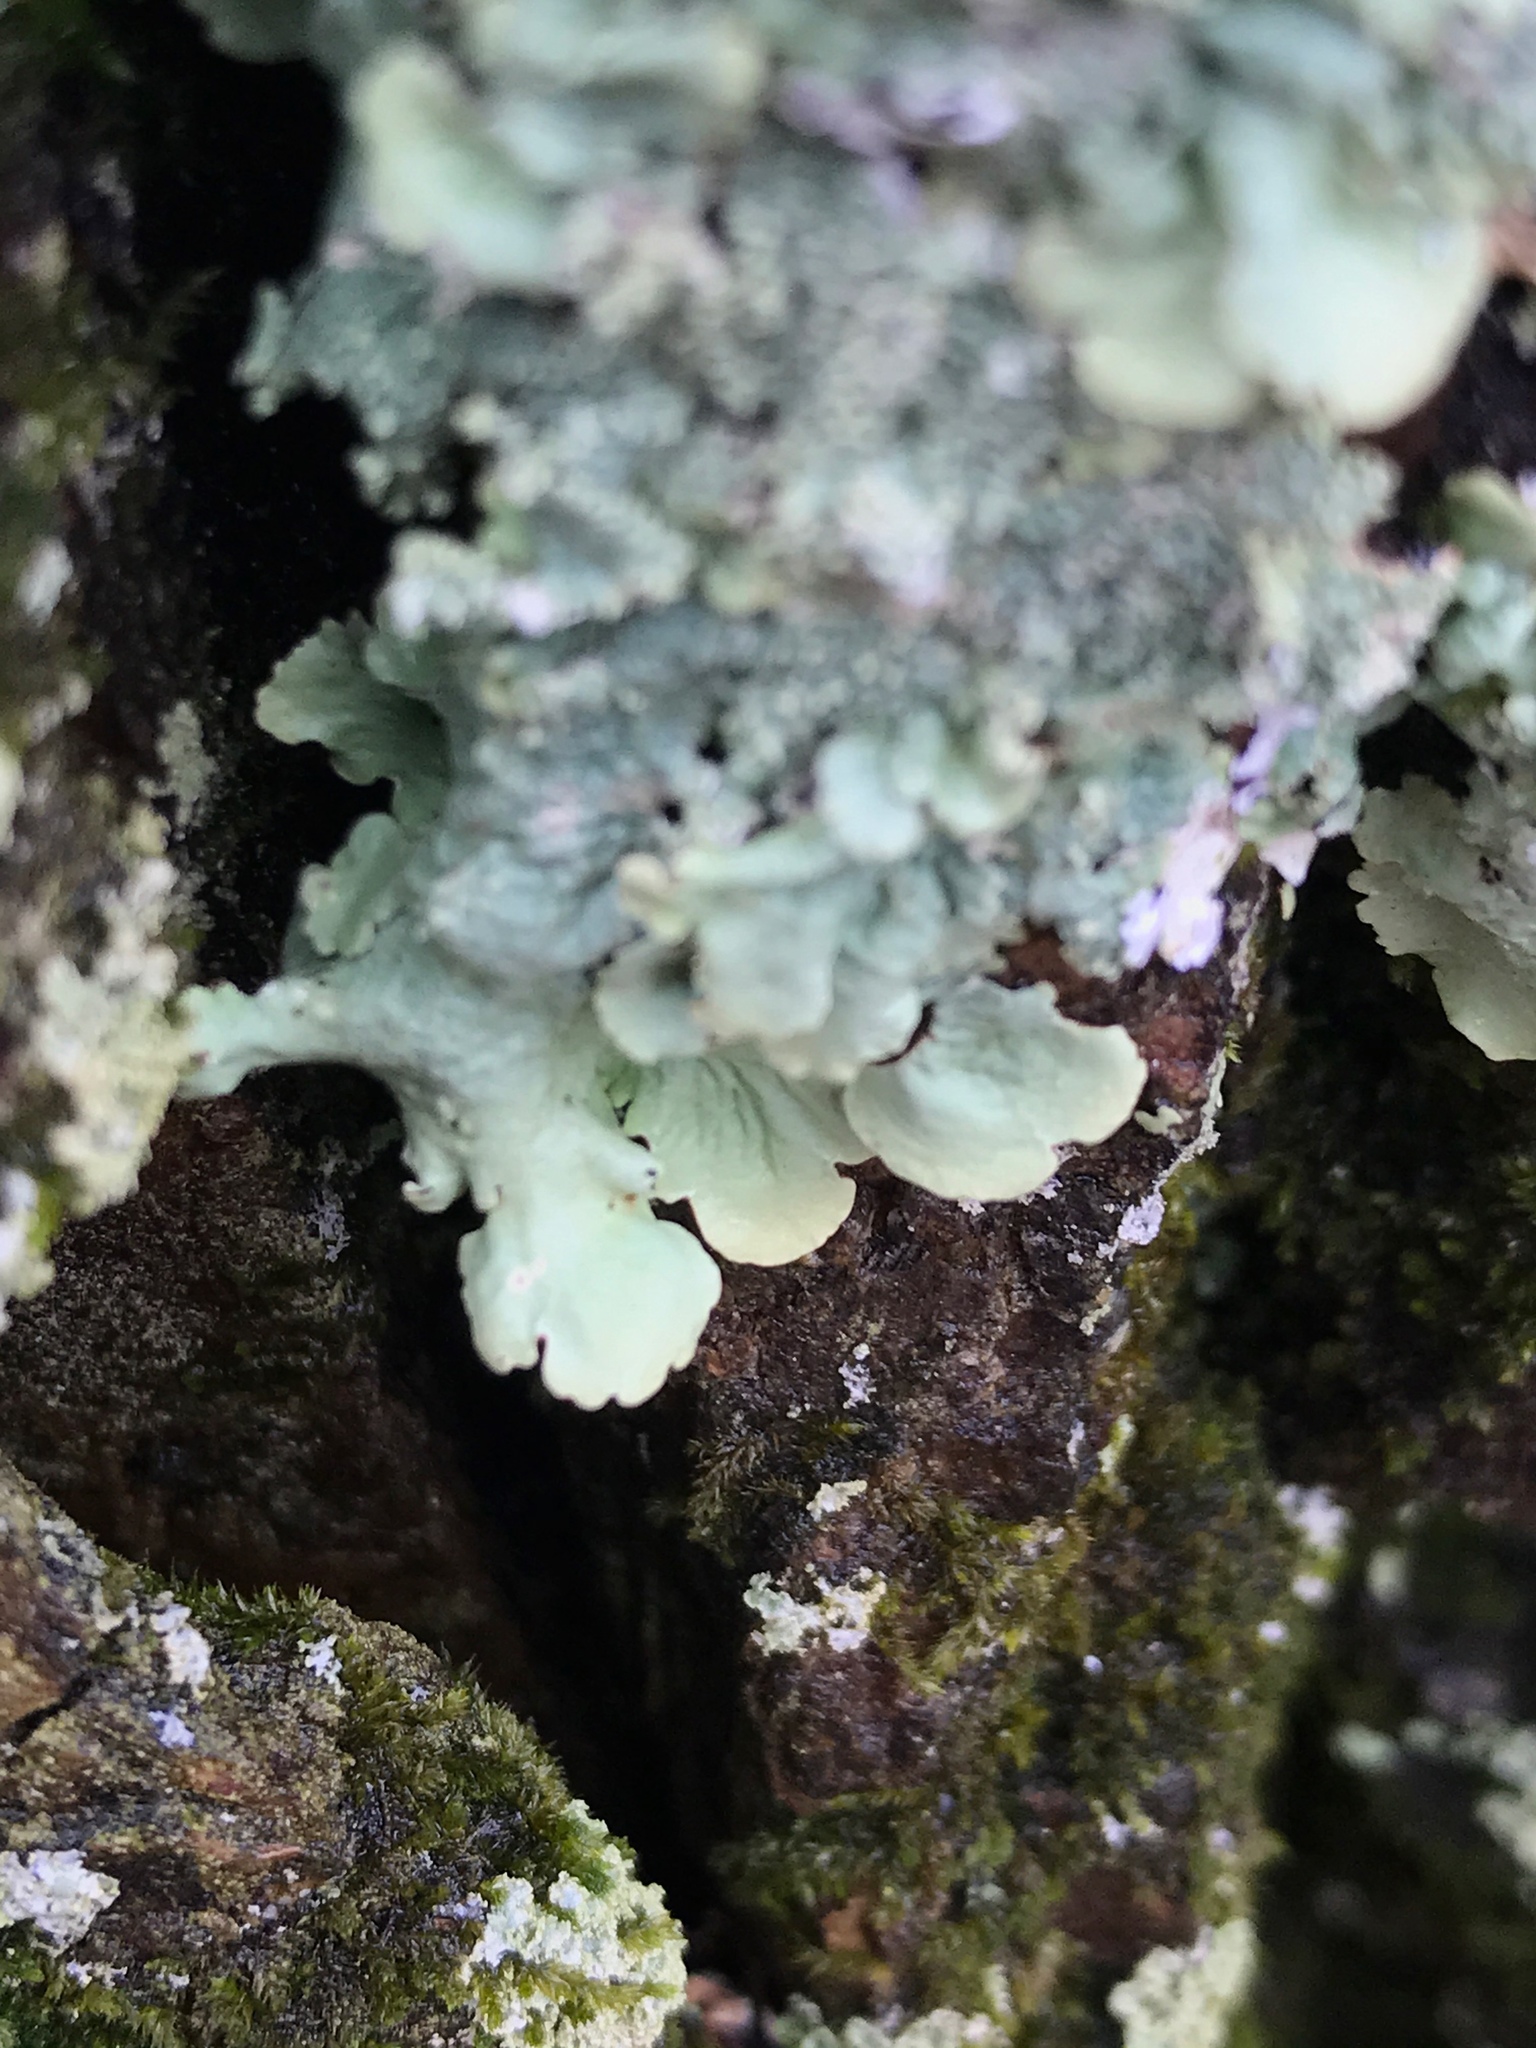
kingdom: Fungi
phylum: Ascomycota
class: Lecanoromycetes
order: Lecanorales
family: Parmeliaceae
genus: Flavoparmelia
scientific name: Flavoparmelia caperata
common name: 40-mile per hour lichen
